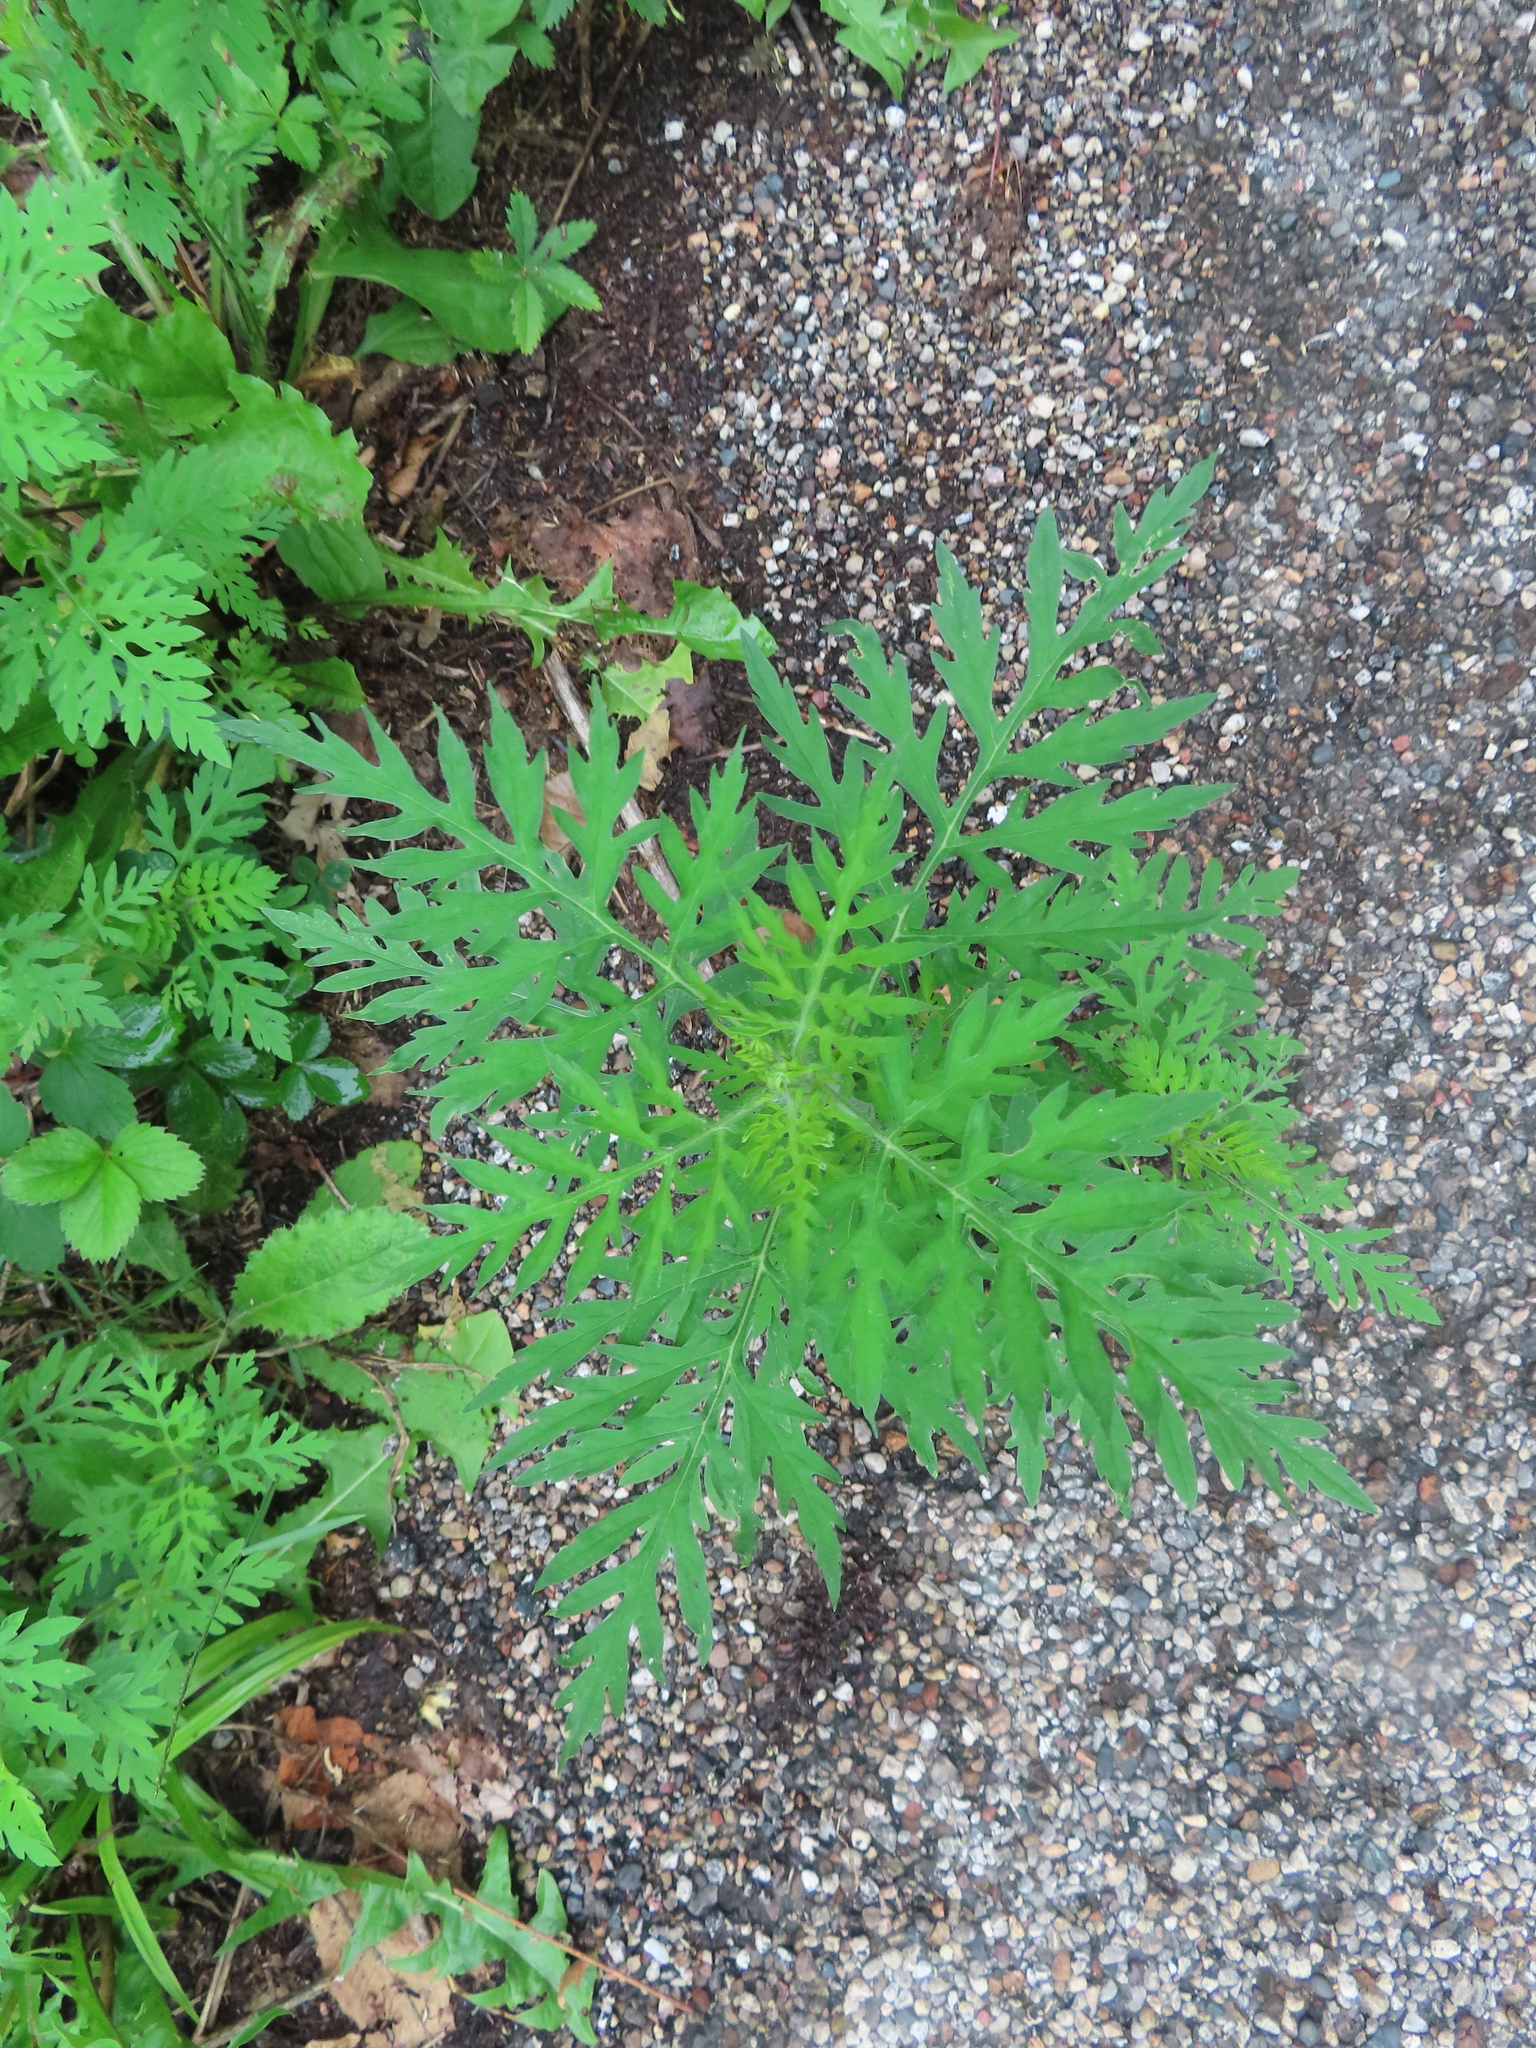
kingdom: Plantae
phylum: Tracheophyta
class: Magnoliopsida
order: Asterales
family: Asteraceae
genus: Ambrosia
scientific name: Ambrosia artemisiifolia
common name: Annual ragweed
